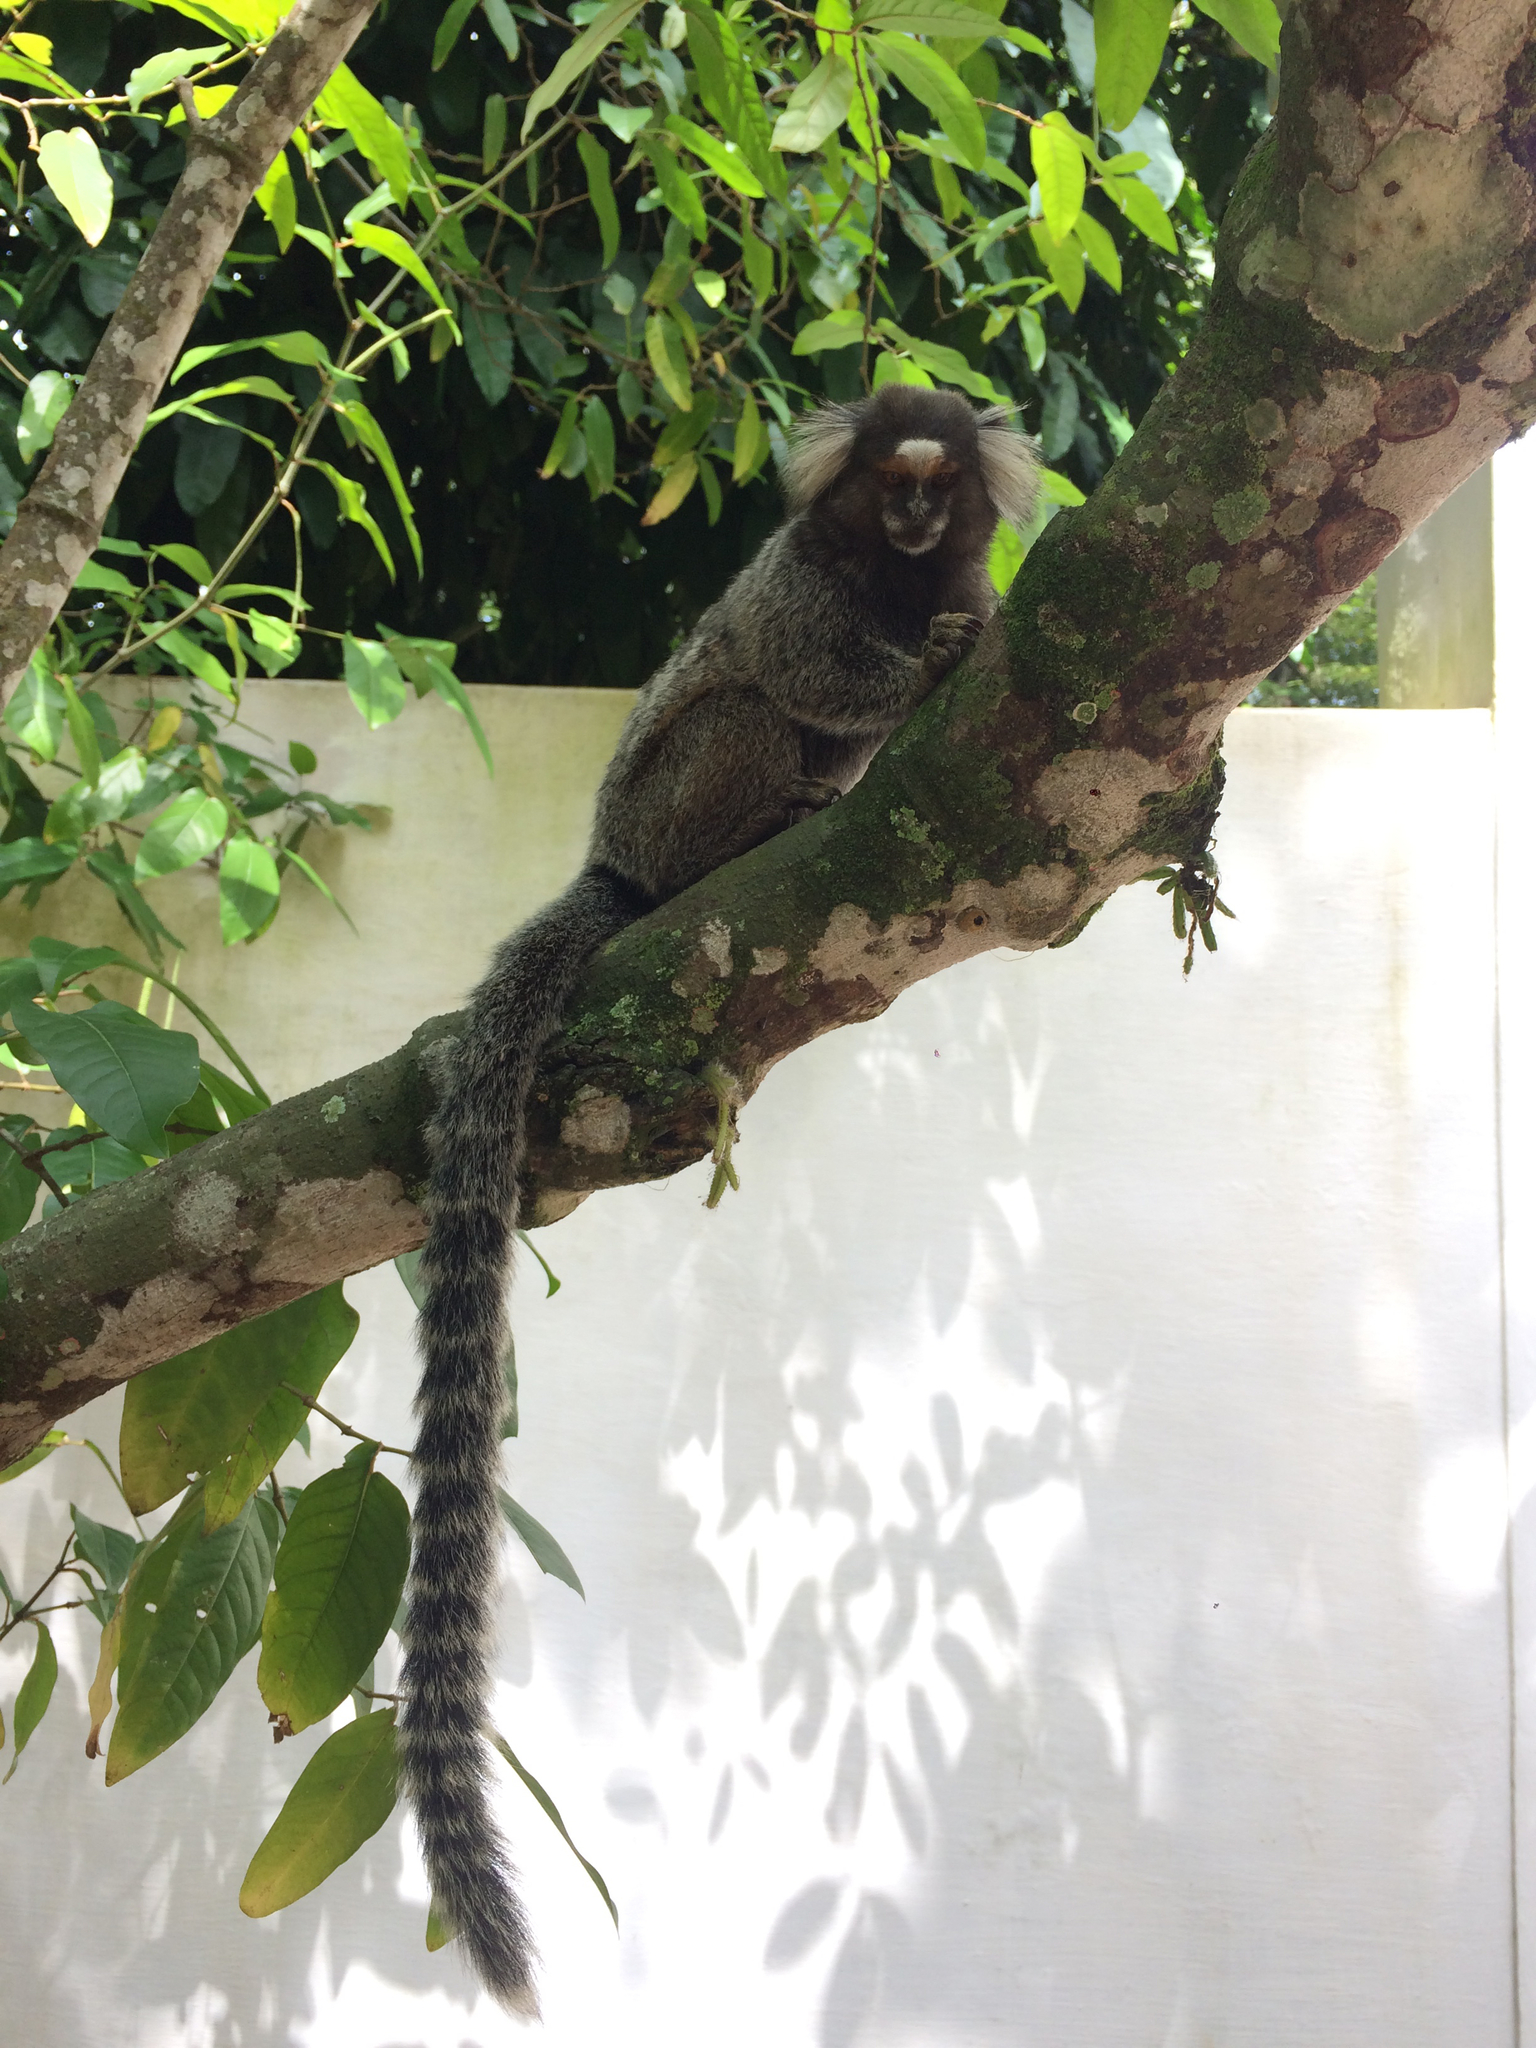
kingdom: Animalia
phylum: Chordata
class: Mammalia
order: Primates
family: Callitrichidae
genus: Callithrix
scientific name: Callithrix jacchus
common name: Common marmoset
